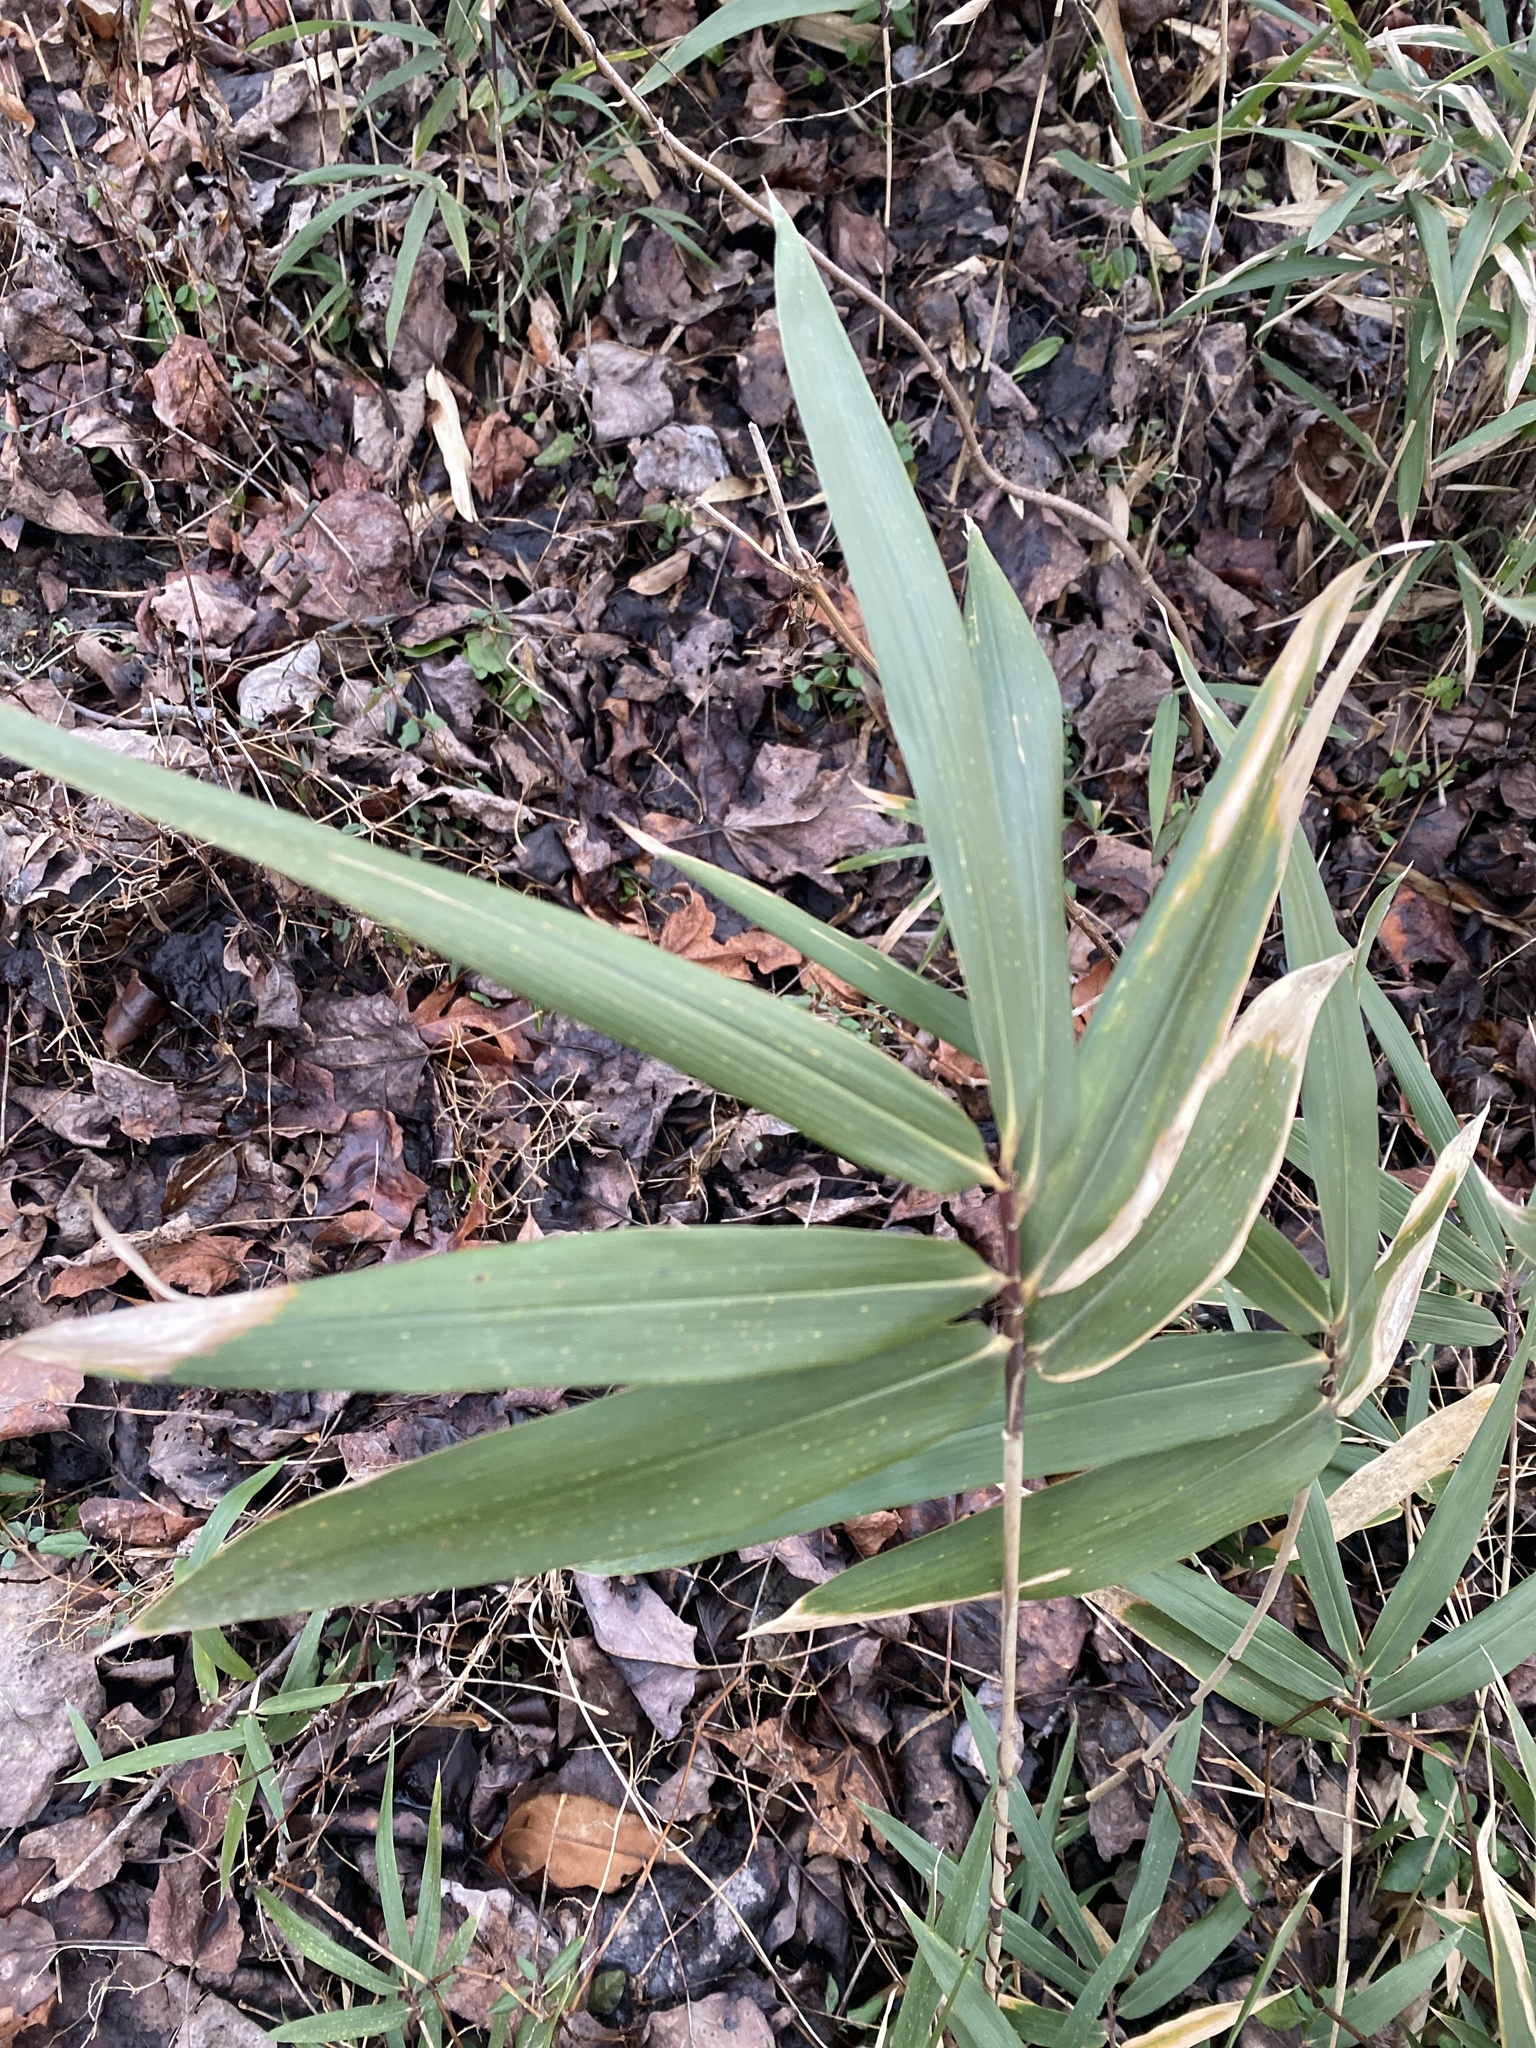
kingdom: Plantae
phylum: Tracheophyta
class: Liliopsida
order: Poales
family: Poaceae
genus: Arundinaria
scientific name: Arundinaria tecta
